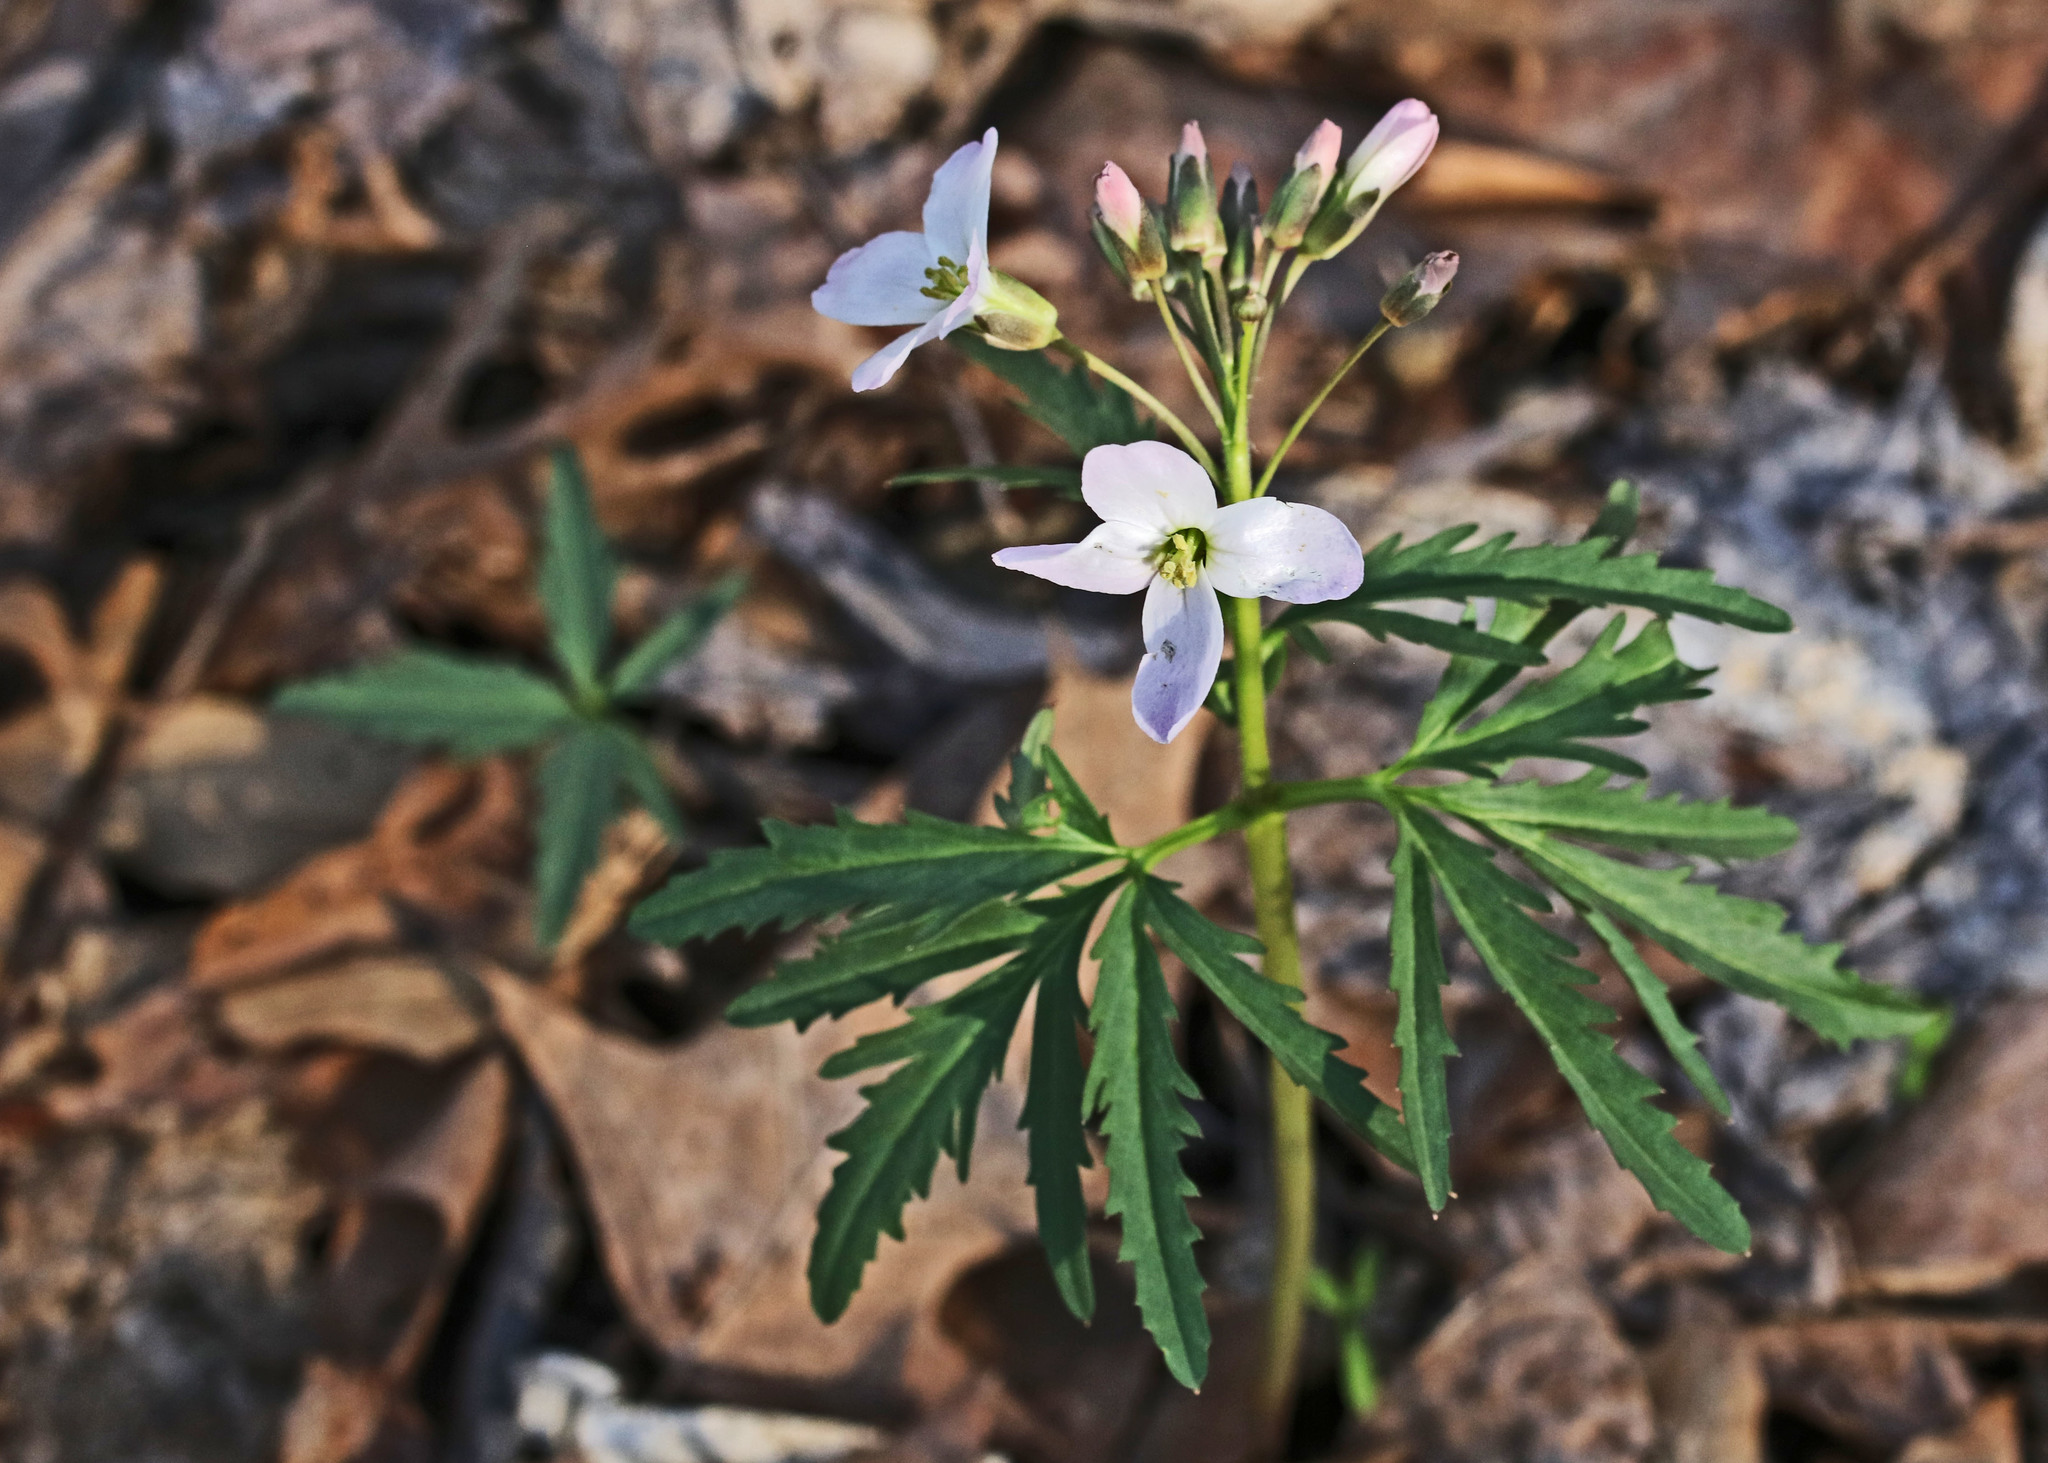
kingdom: Plantae
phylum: Tracheophyta
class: Magnoliopsida
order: Brassicales
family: Brassicaceae
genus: Cardamine
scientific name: Cardamine concatenata
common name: Cut-leaf toothcup
